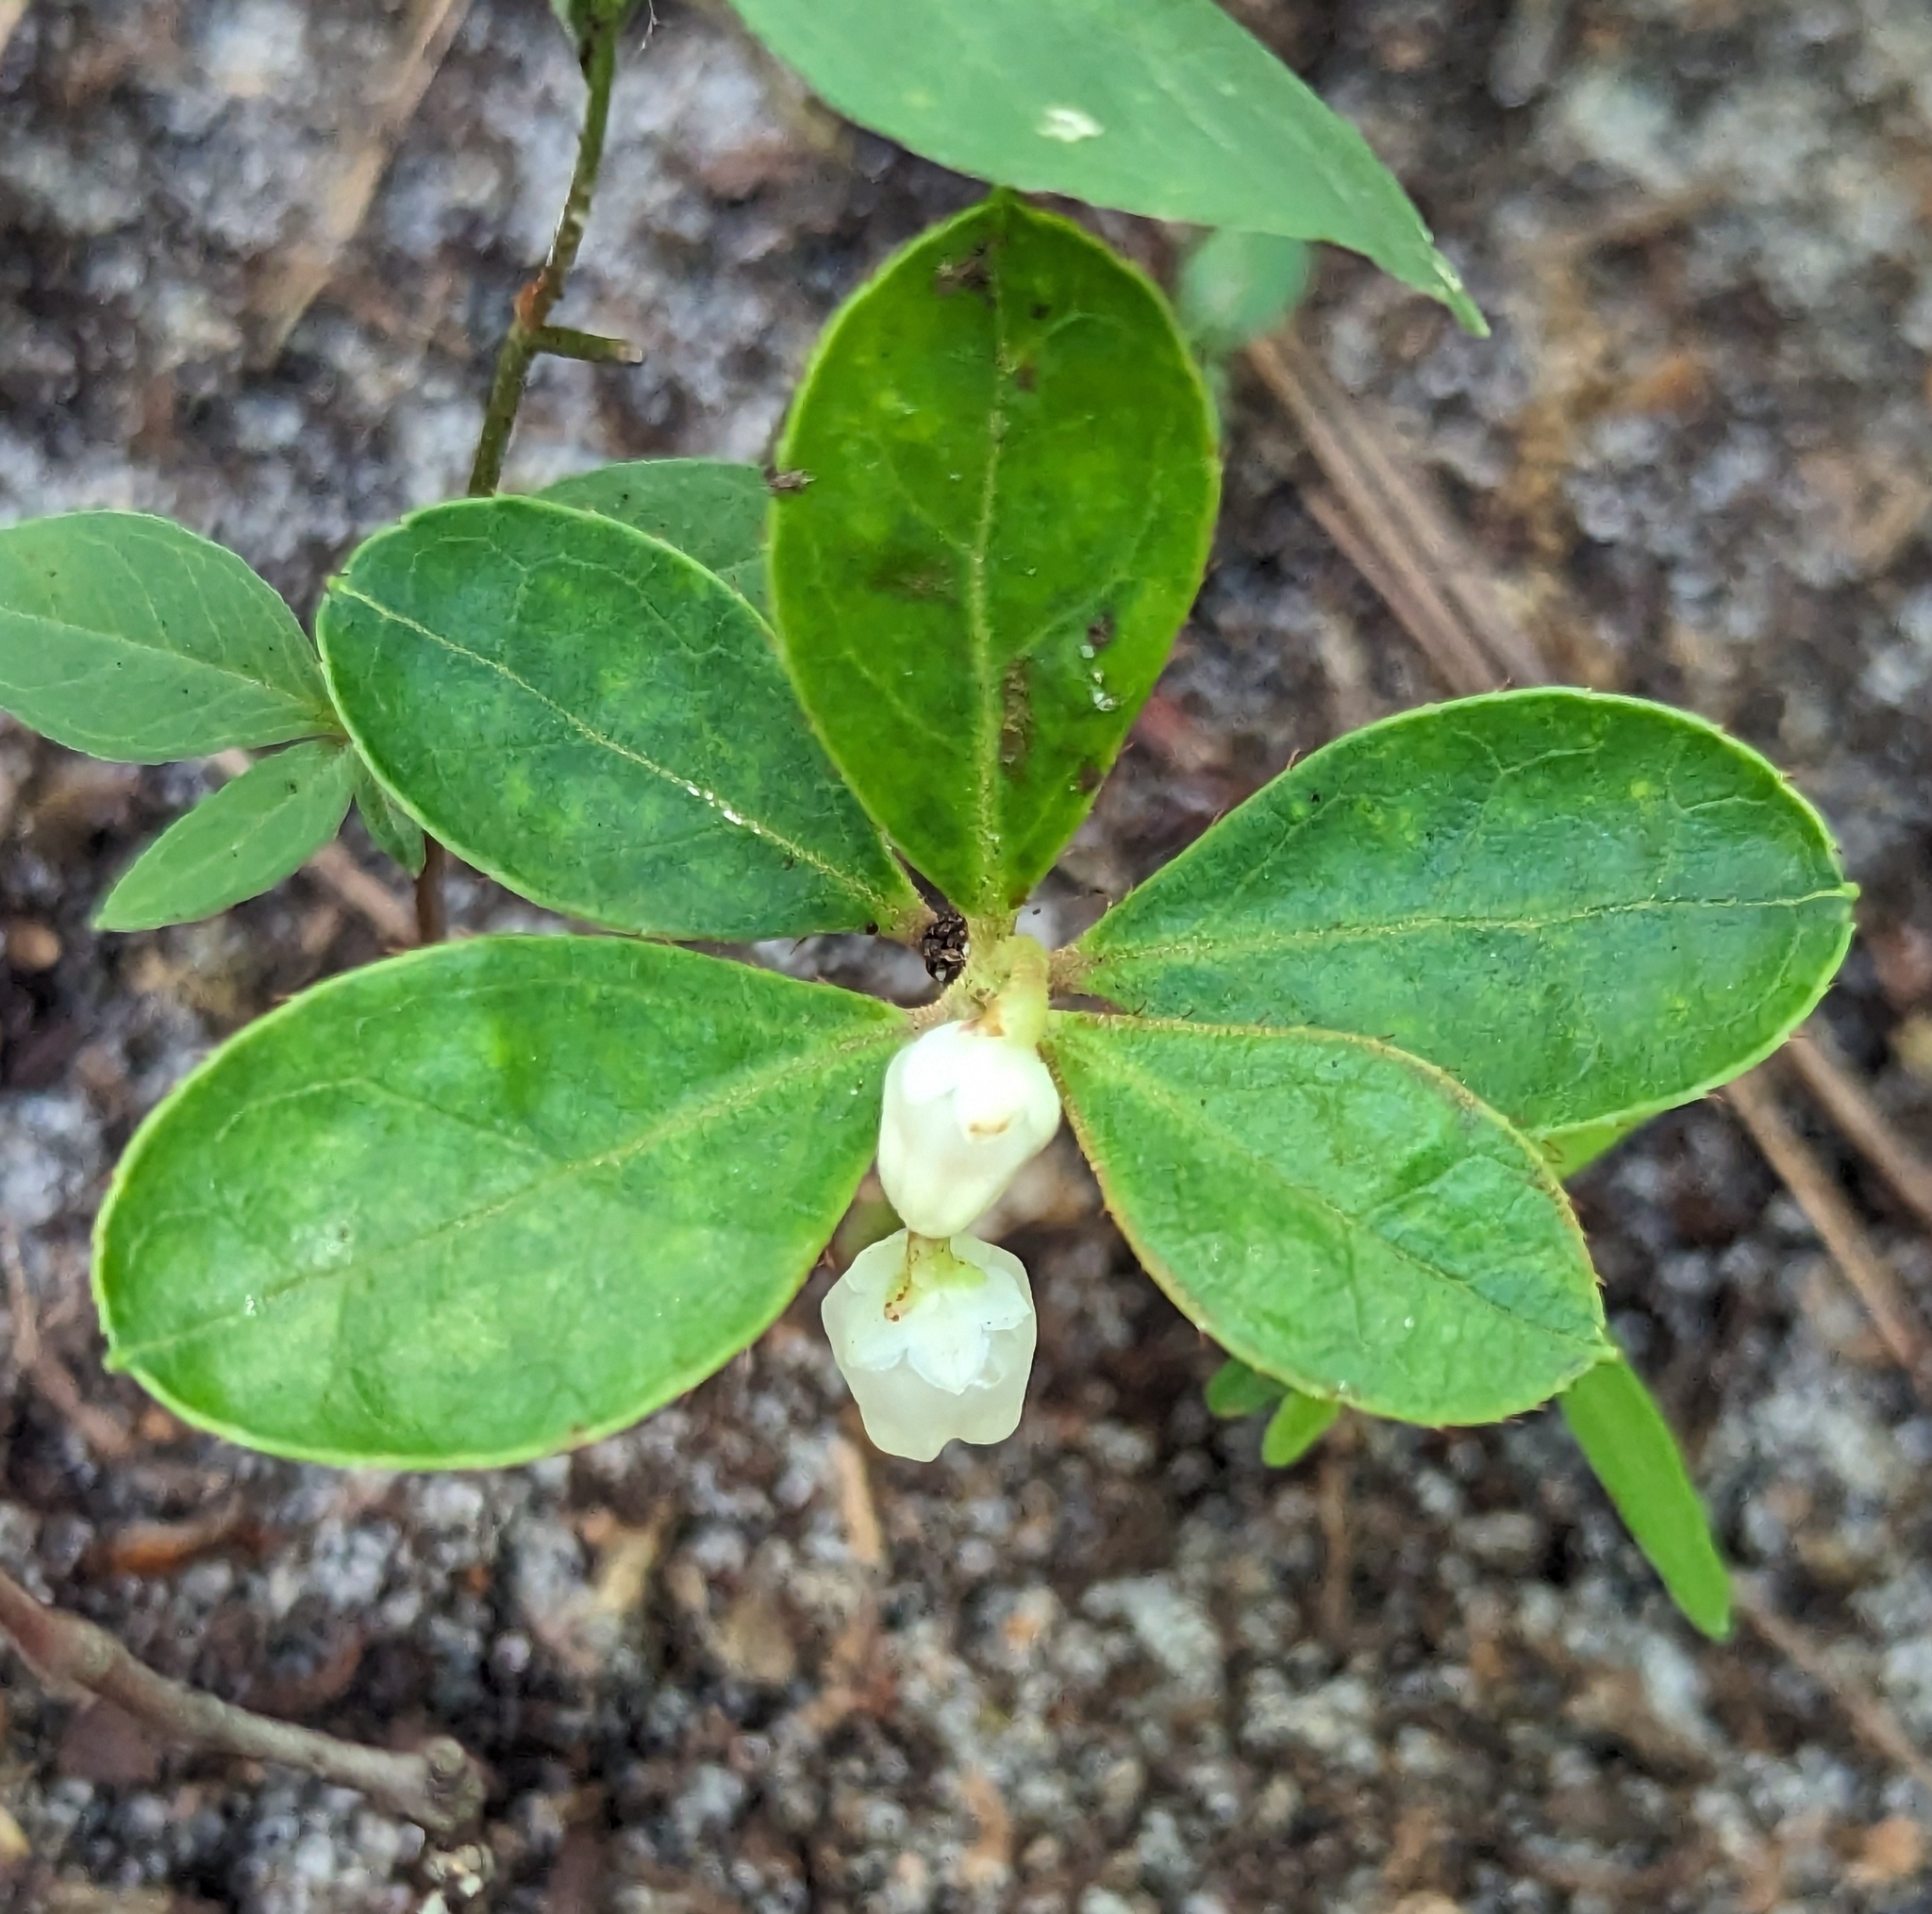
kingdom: Plantae
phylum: Tracheophyta
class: Magnoliopsida
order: Ericales
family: Ericaceae
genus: Gaultheria
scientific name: Gaultheria procumbens
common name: Checkerberry
